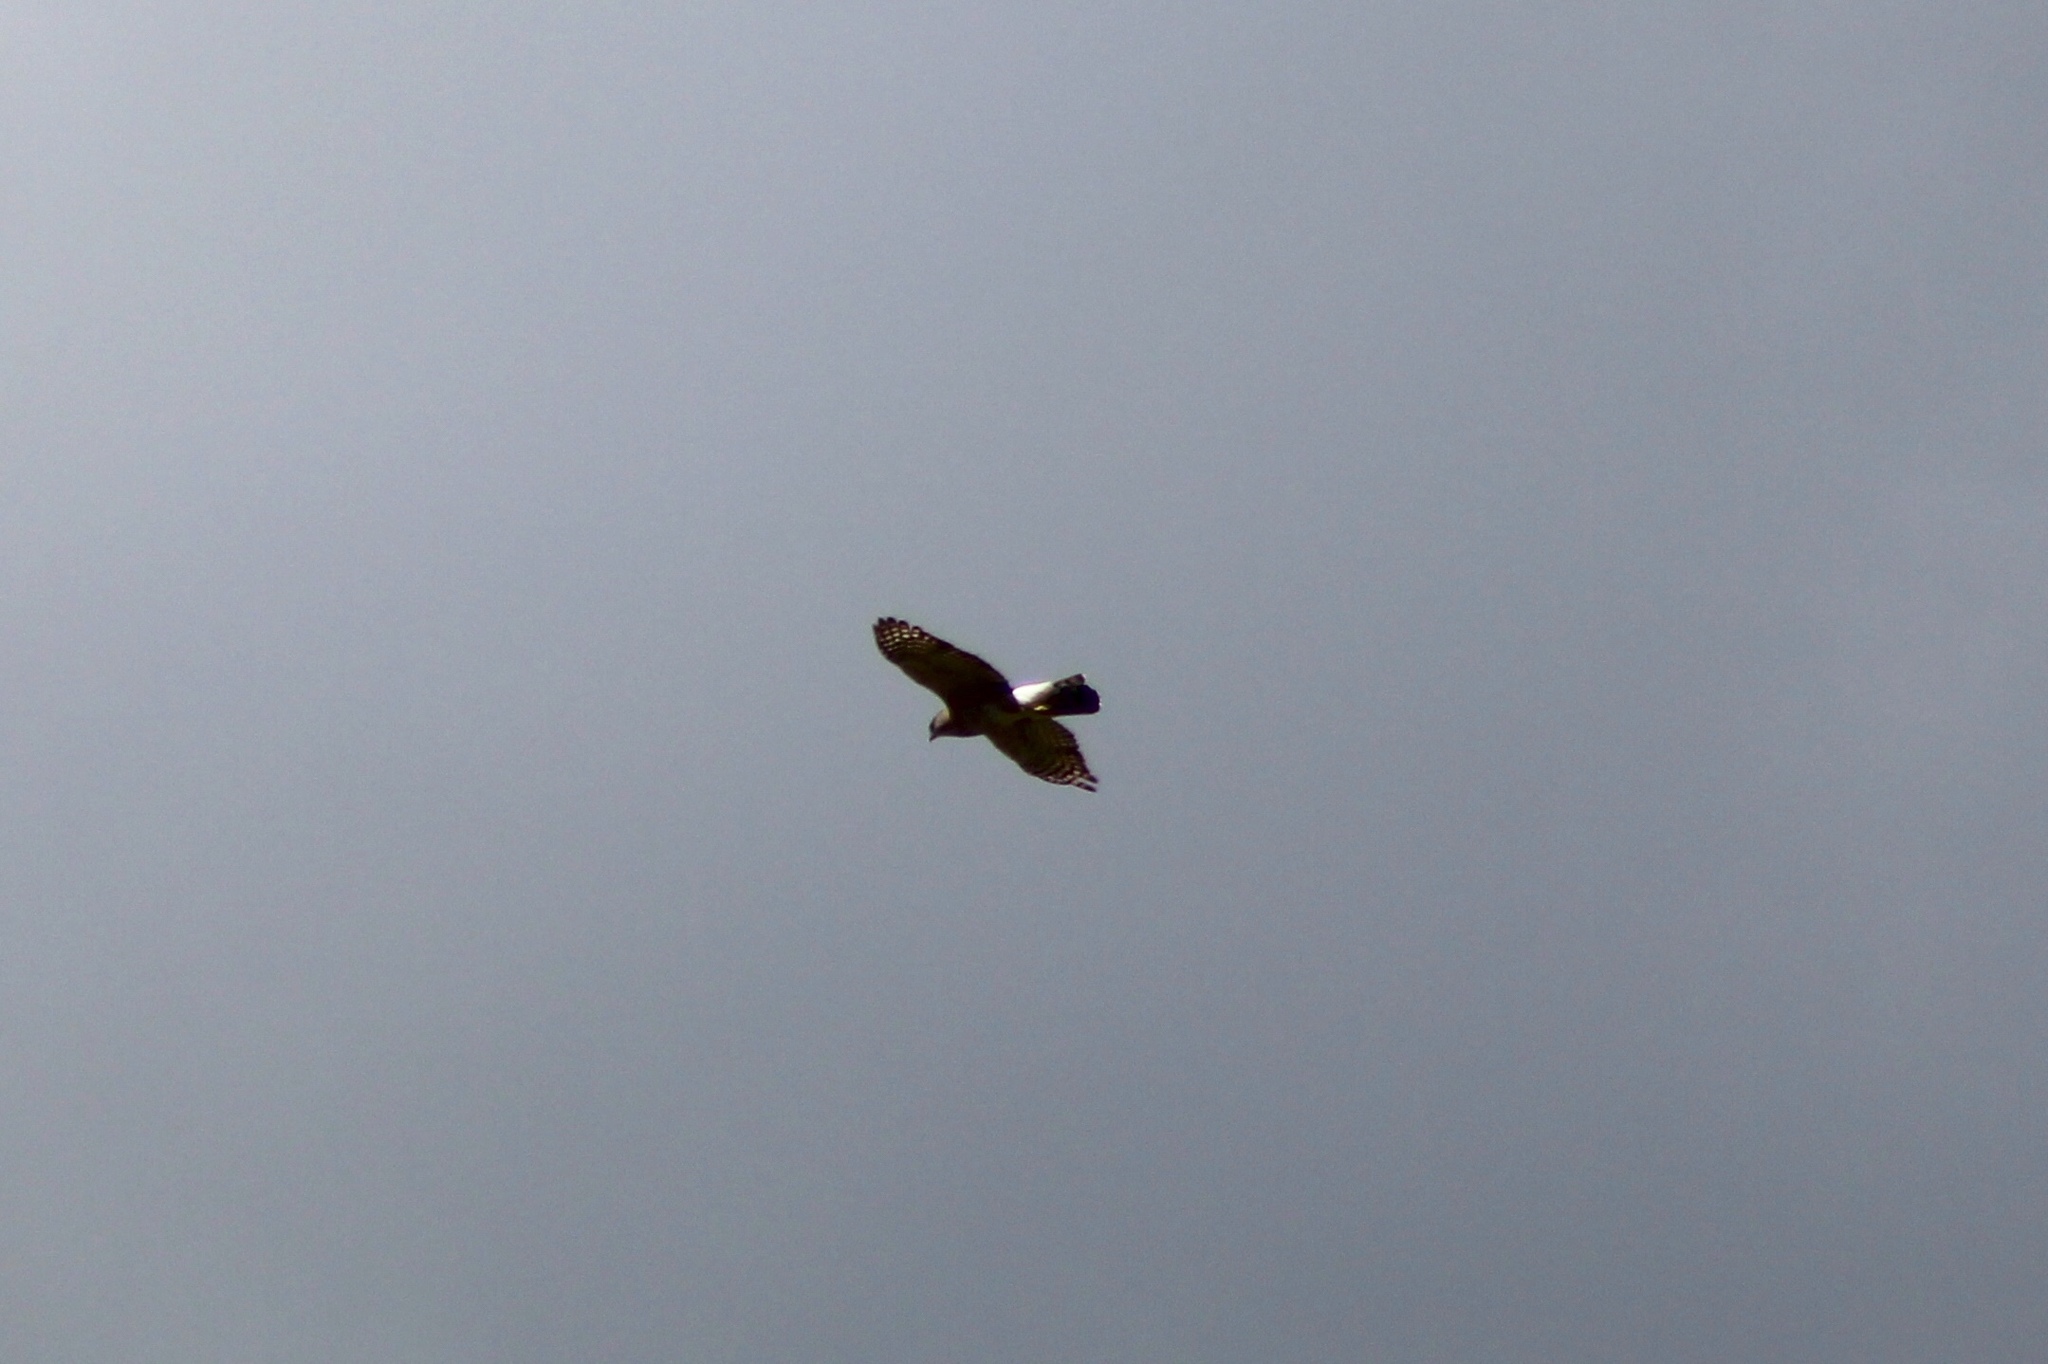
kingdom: Animalia
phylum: Chordata
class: Aves
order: Accipitriformes
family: Accipitridae
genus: Accipiter
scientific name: Accipiter cooperii
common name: Cooper's hawk
